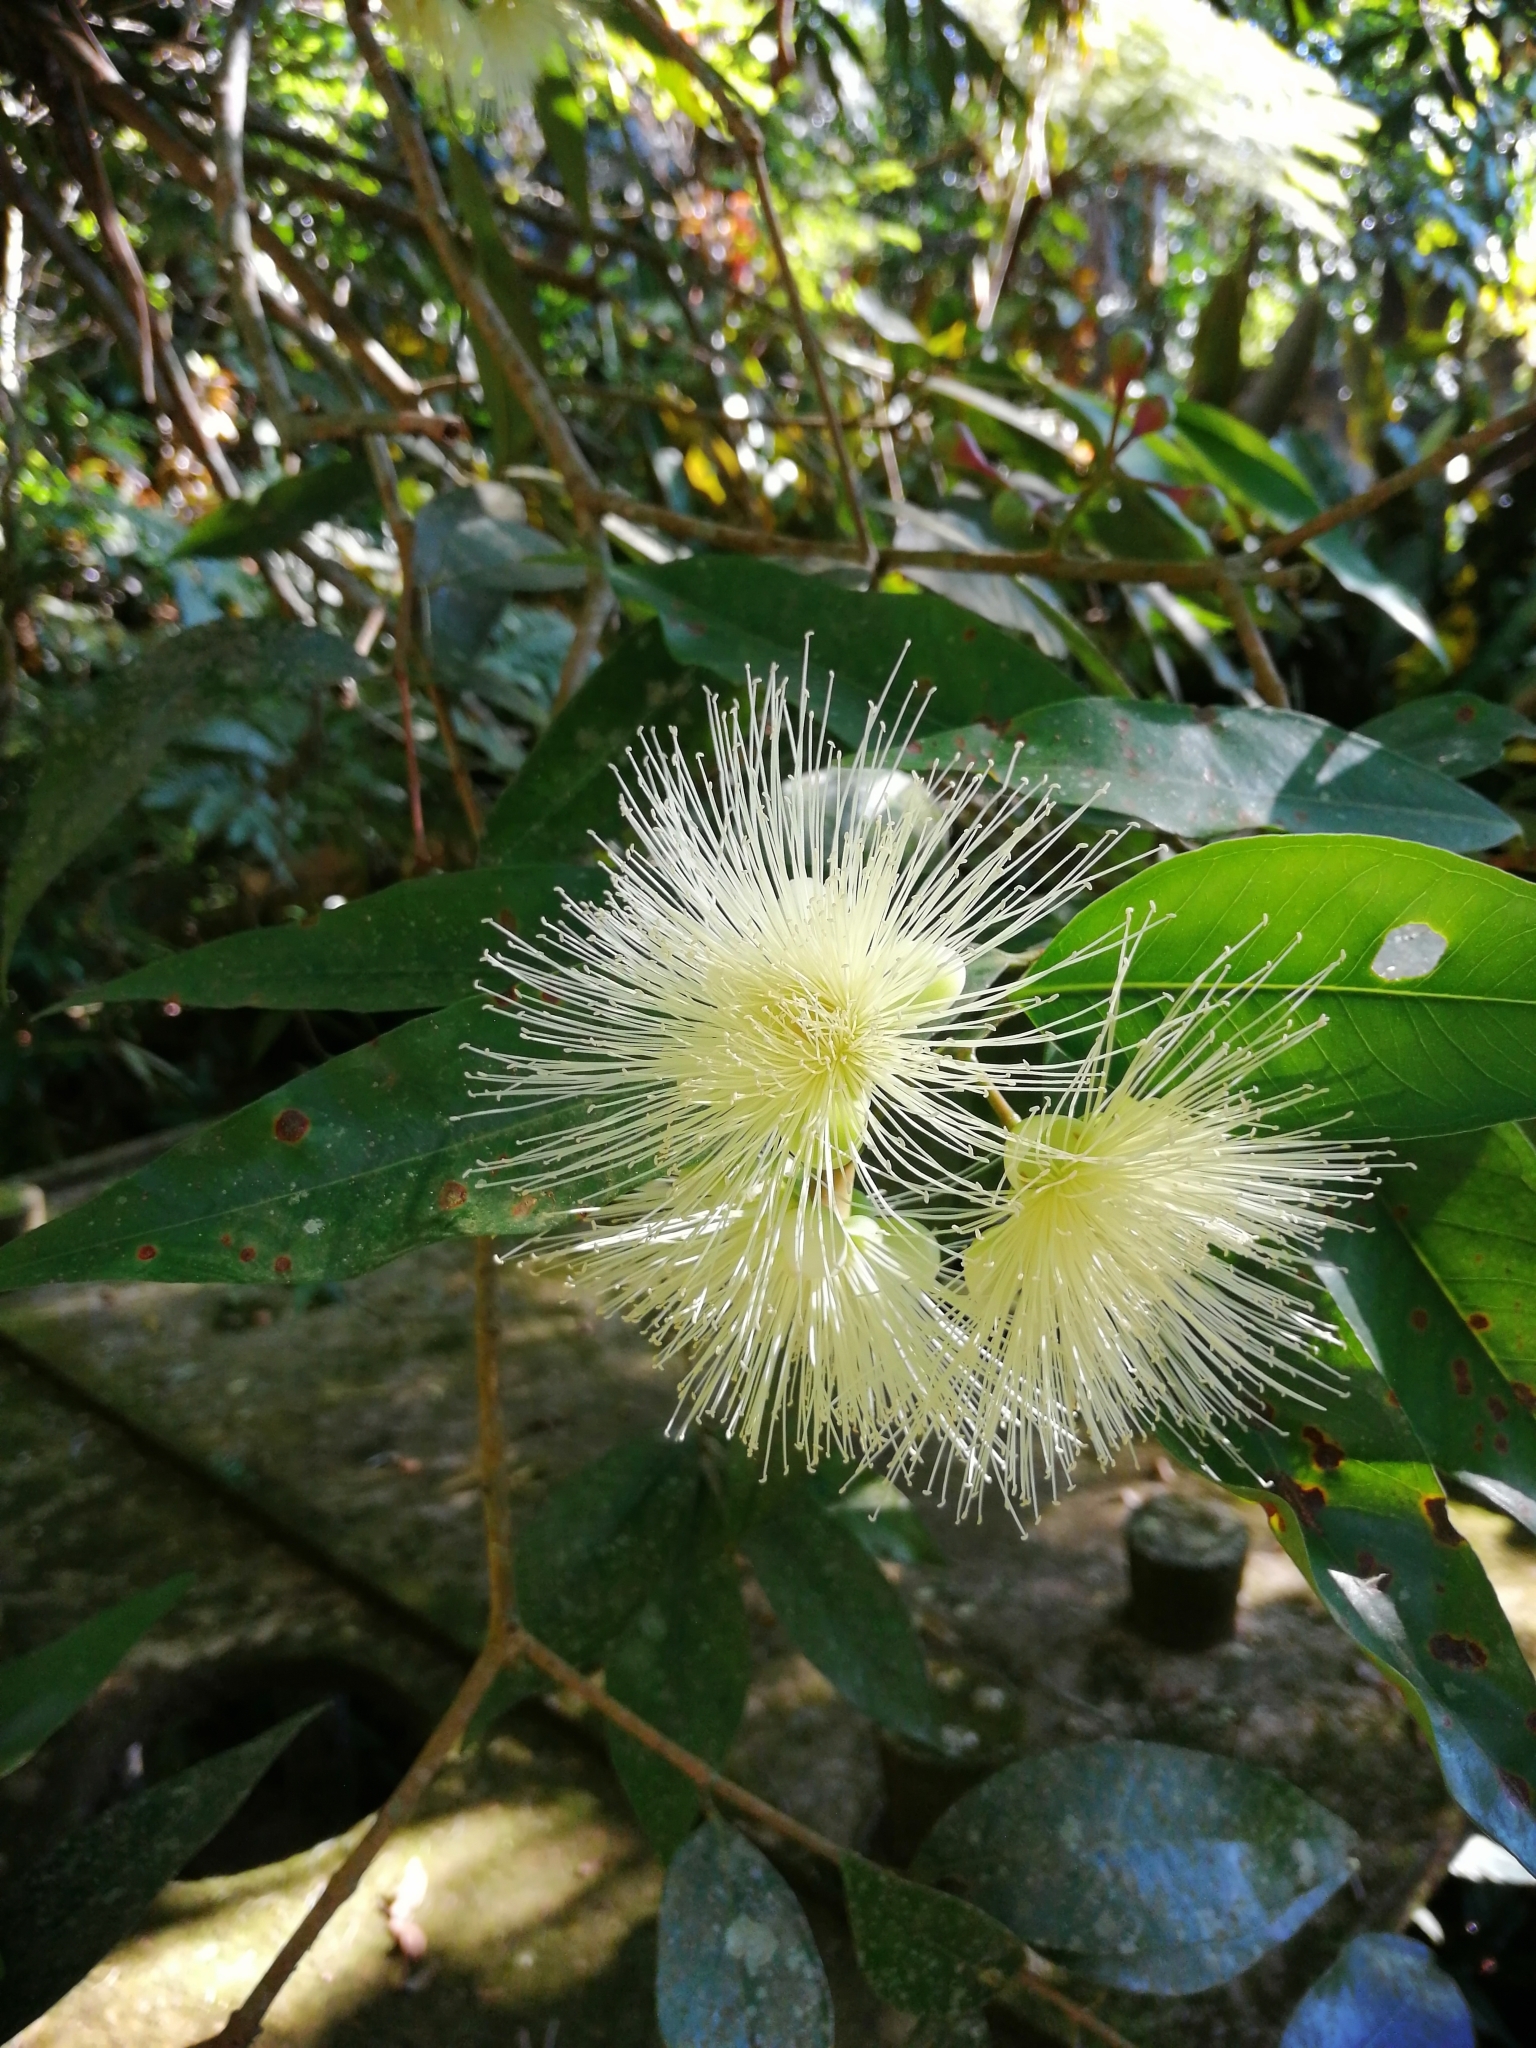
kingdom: Plantae
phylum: Tracheophyta
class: Magnoliopsida
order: Myrtales
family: Myrtaceae
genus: Syzygium
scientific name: Syzygium jambos
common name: Malabar plum
